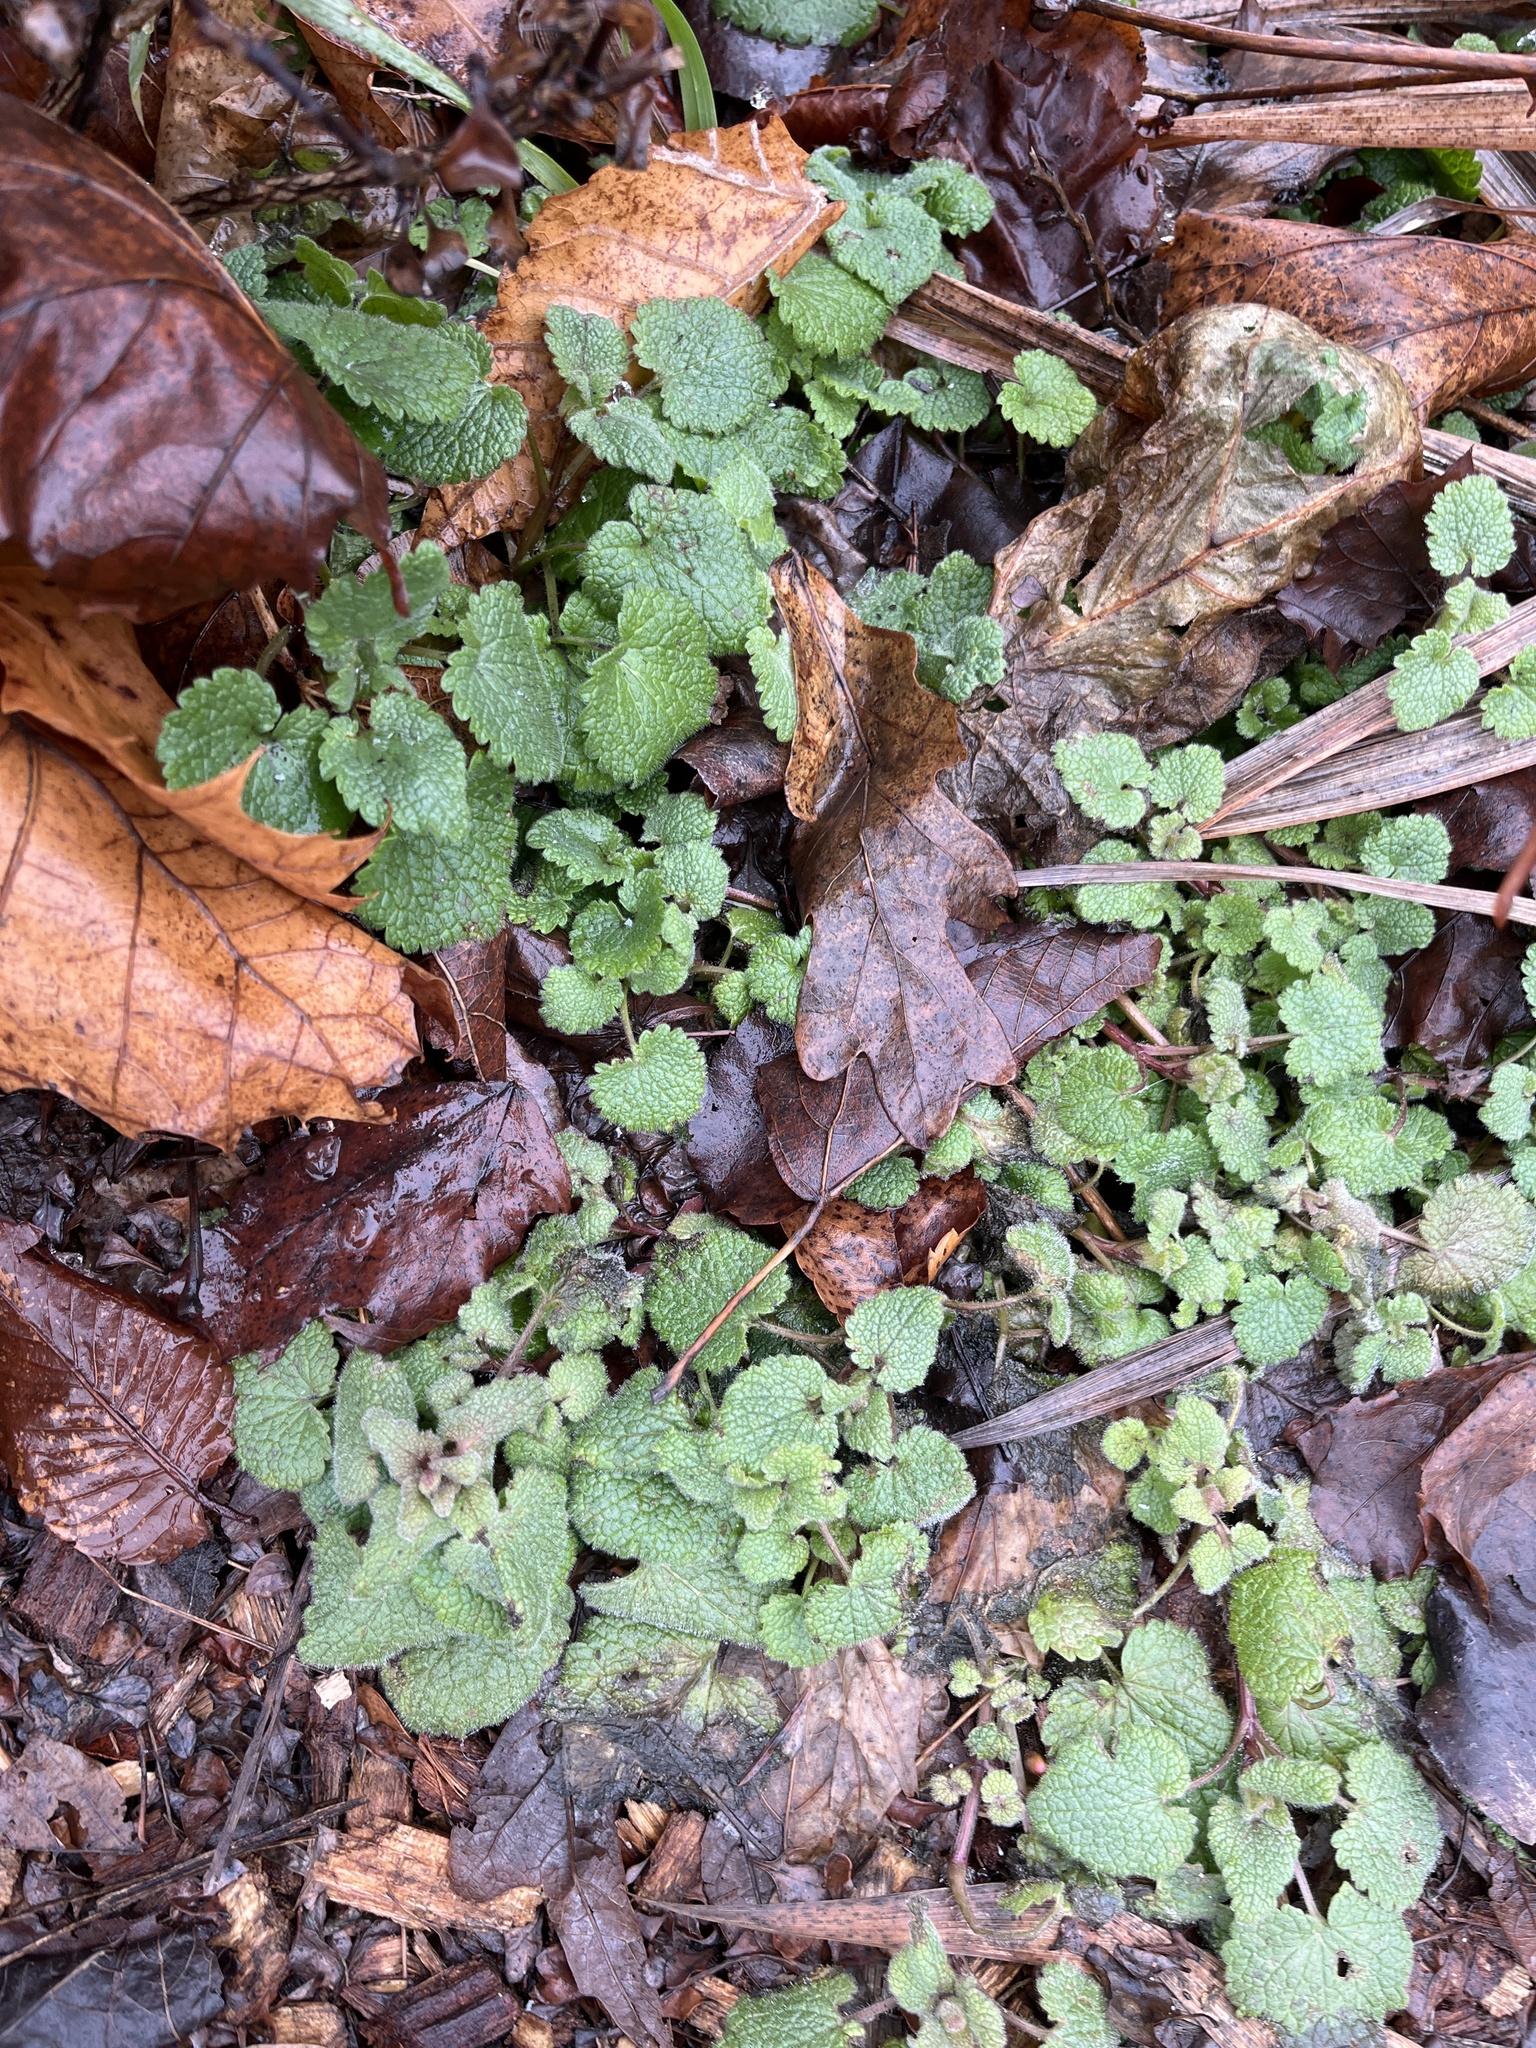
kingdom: Plantae
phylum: Tracheophyta
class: Magnoliopsida
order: Lamiales
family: Lamiaceae
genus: Leonurus
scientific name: Leonurus cardiaca
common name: Motherwort
